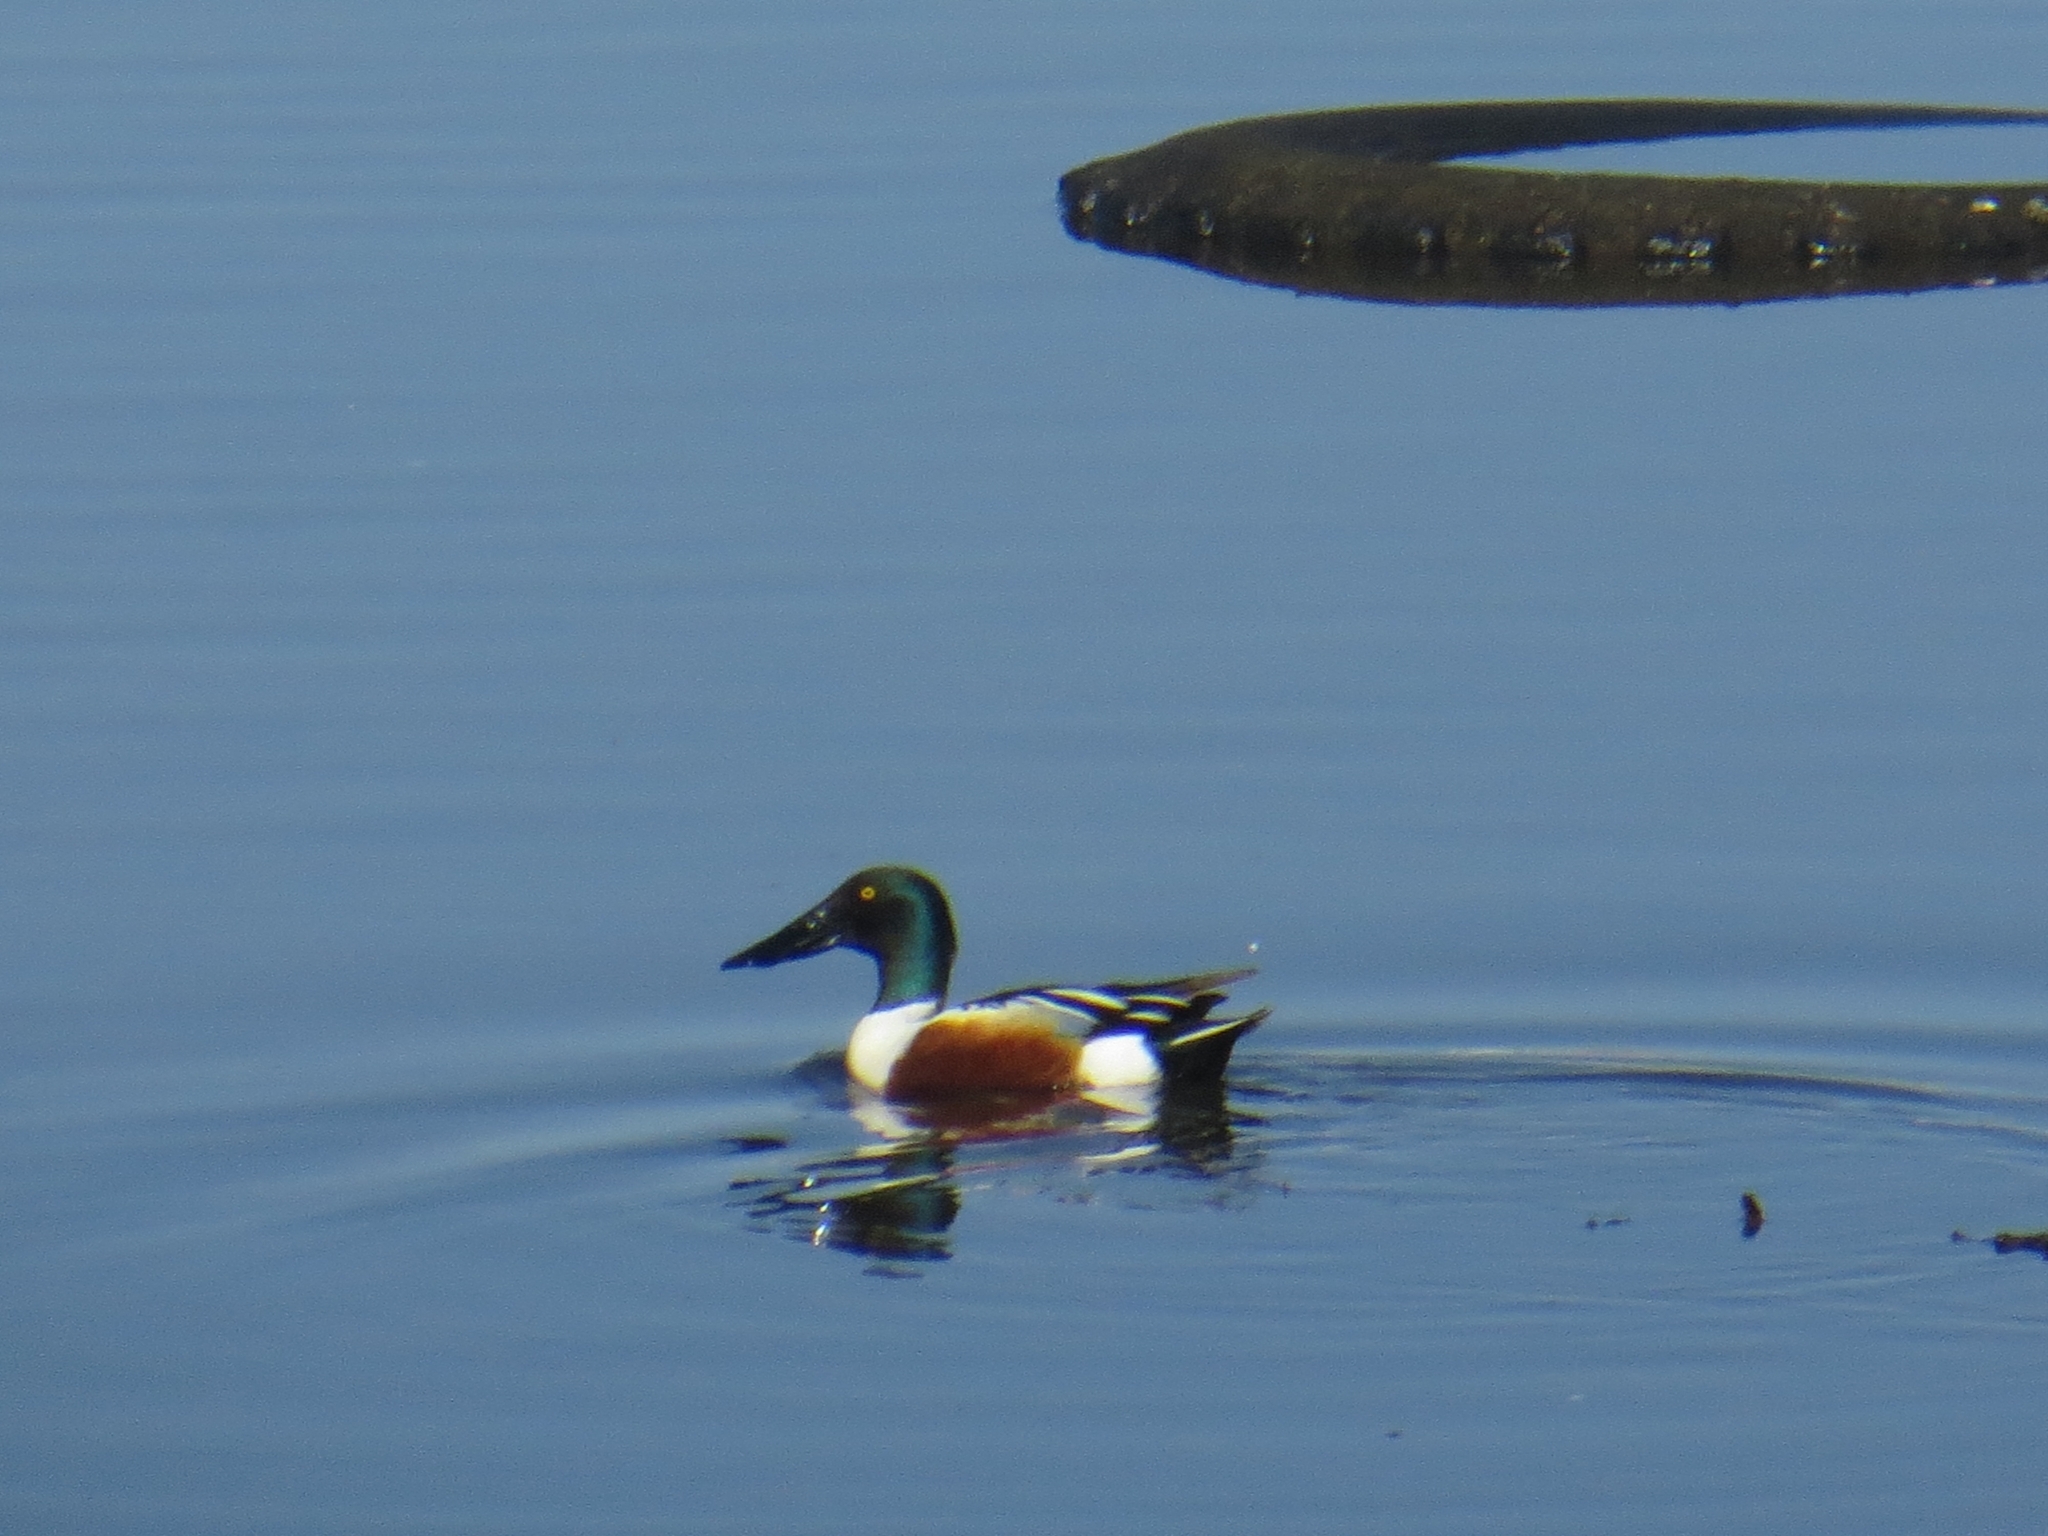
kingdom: Animalia
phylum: Chordata
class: Aves
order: Anseriformes
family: Anatidae
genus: Spatula
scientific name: Spatula clypeata
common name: Northern shoveler
